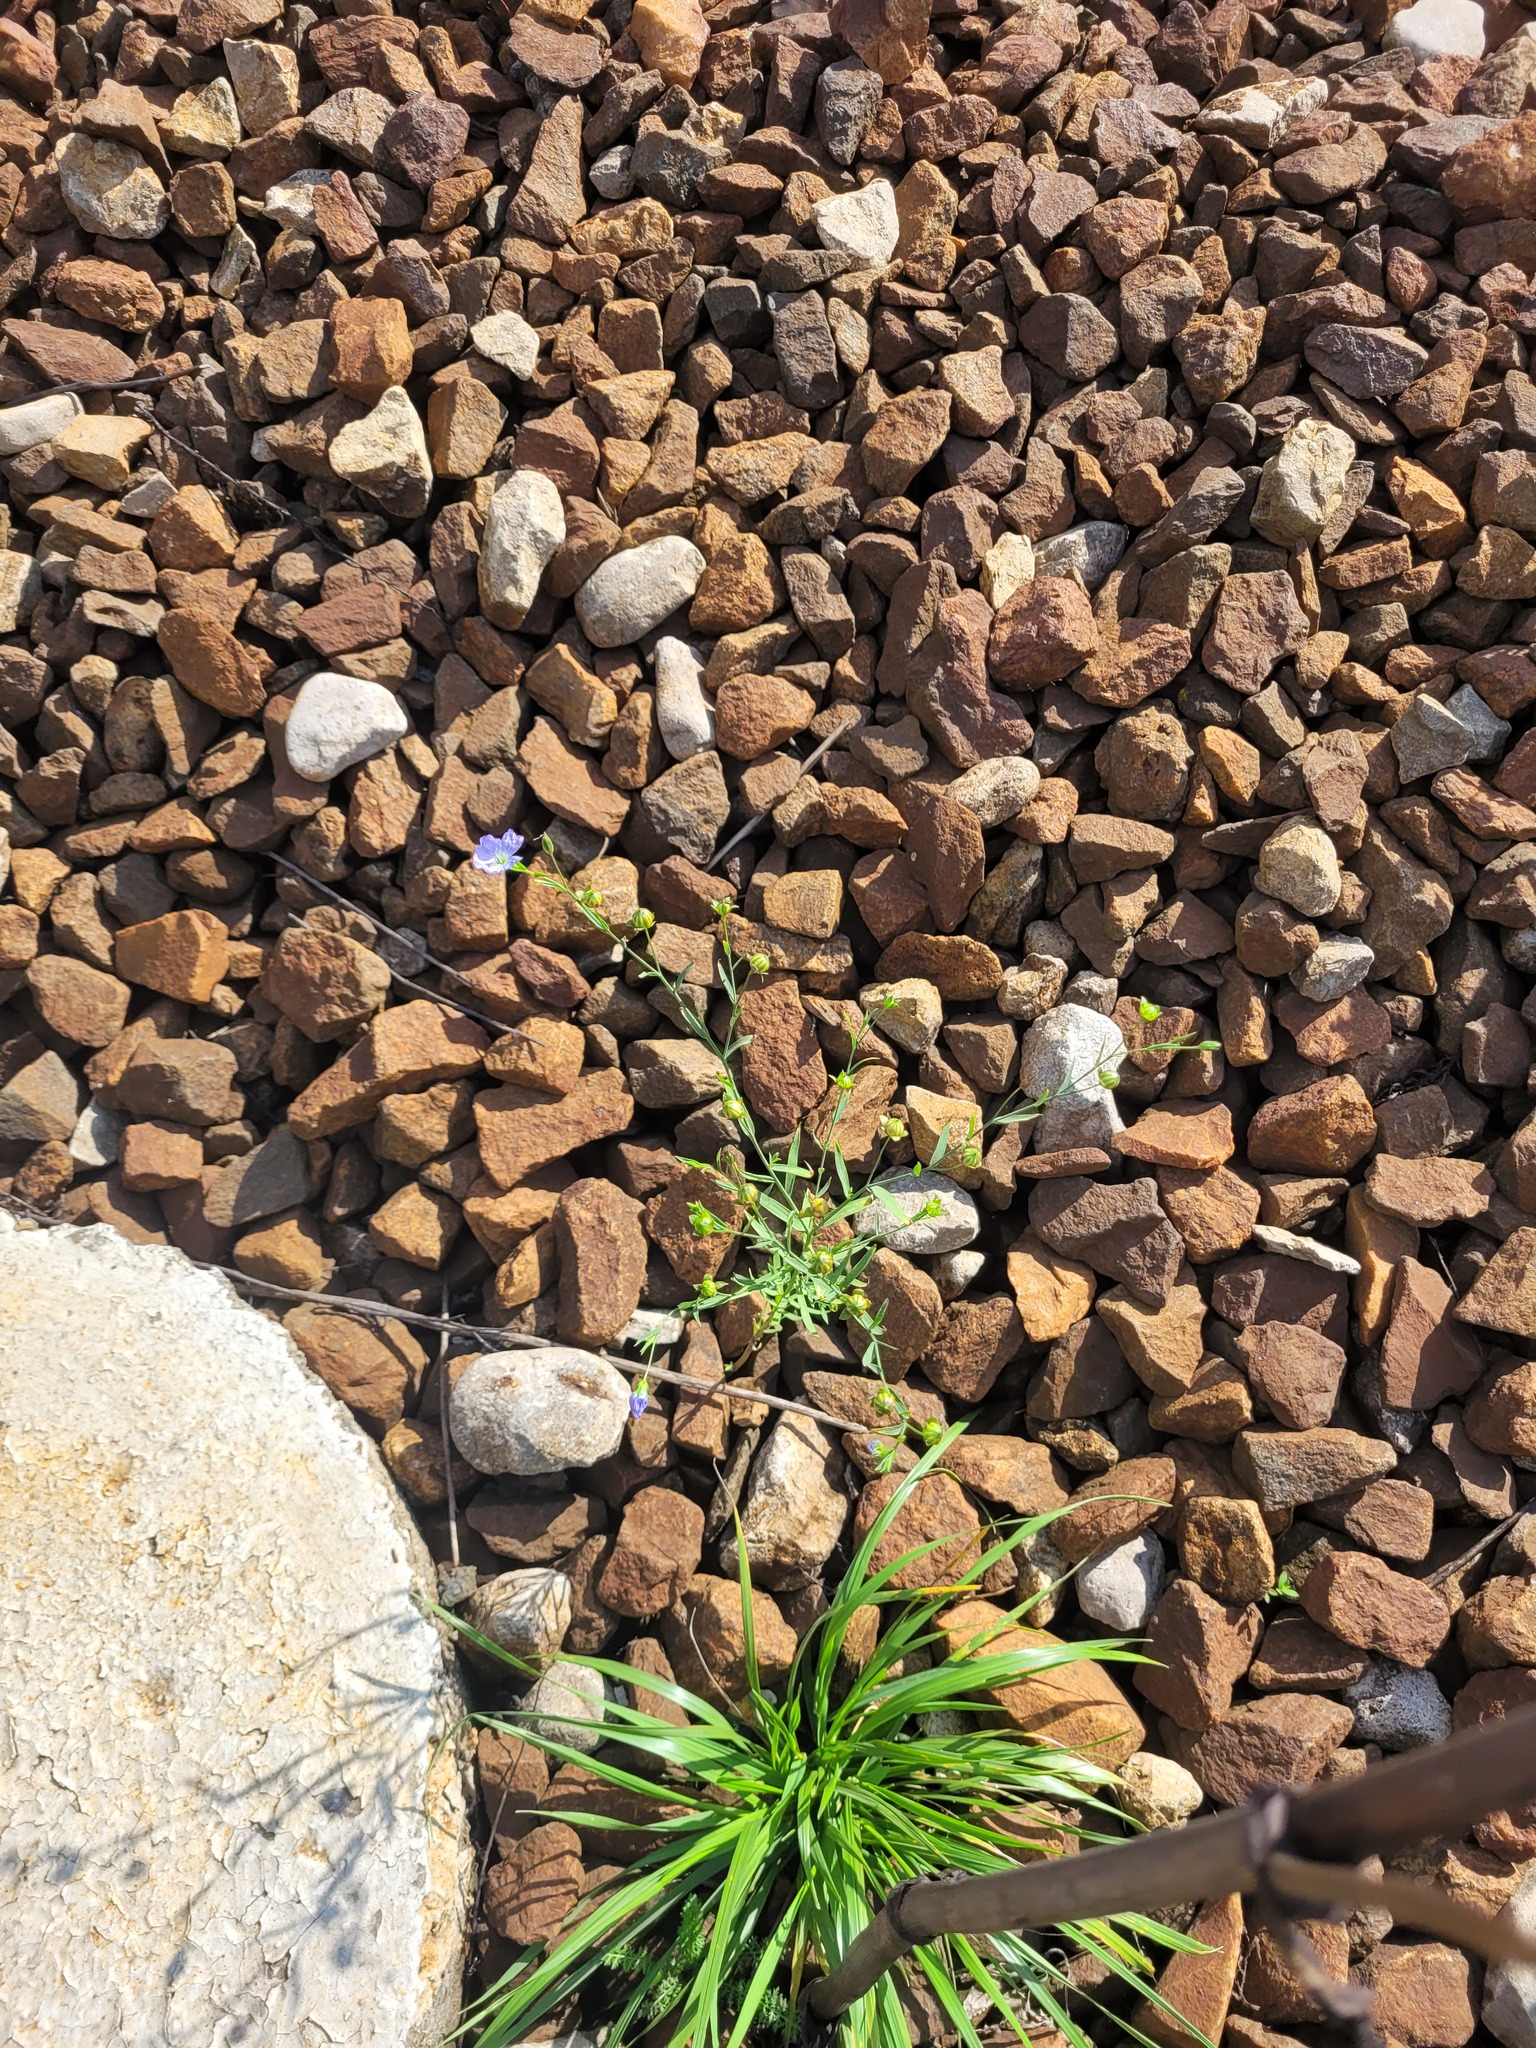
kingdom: Plantae
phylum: Tracheophyta
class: Magnoliopsida
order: Malpighiales
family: Linaceae
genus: Linum
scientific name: Linum usitatissimum
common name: Flax
